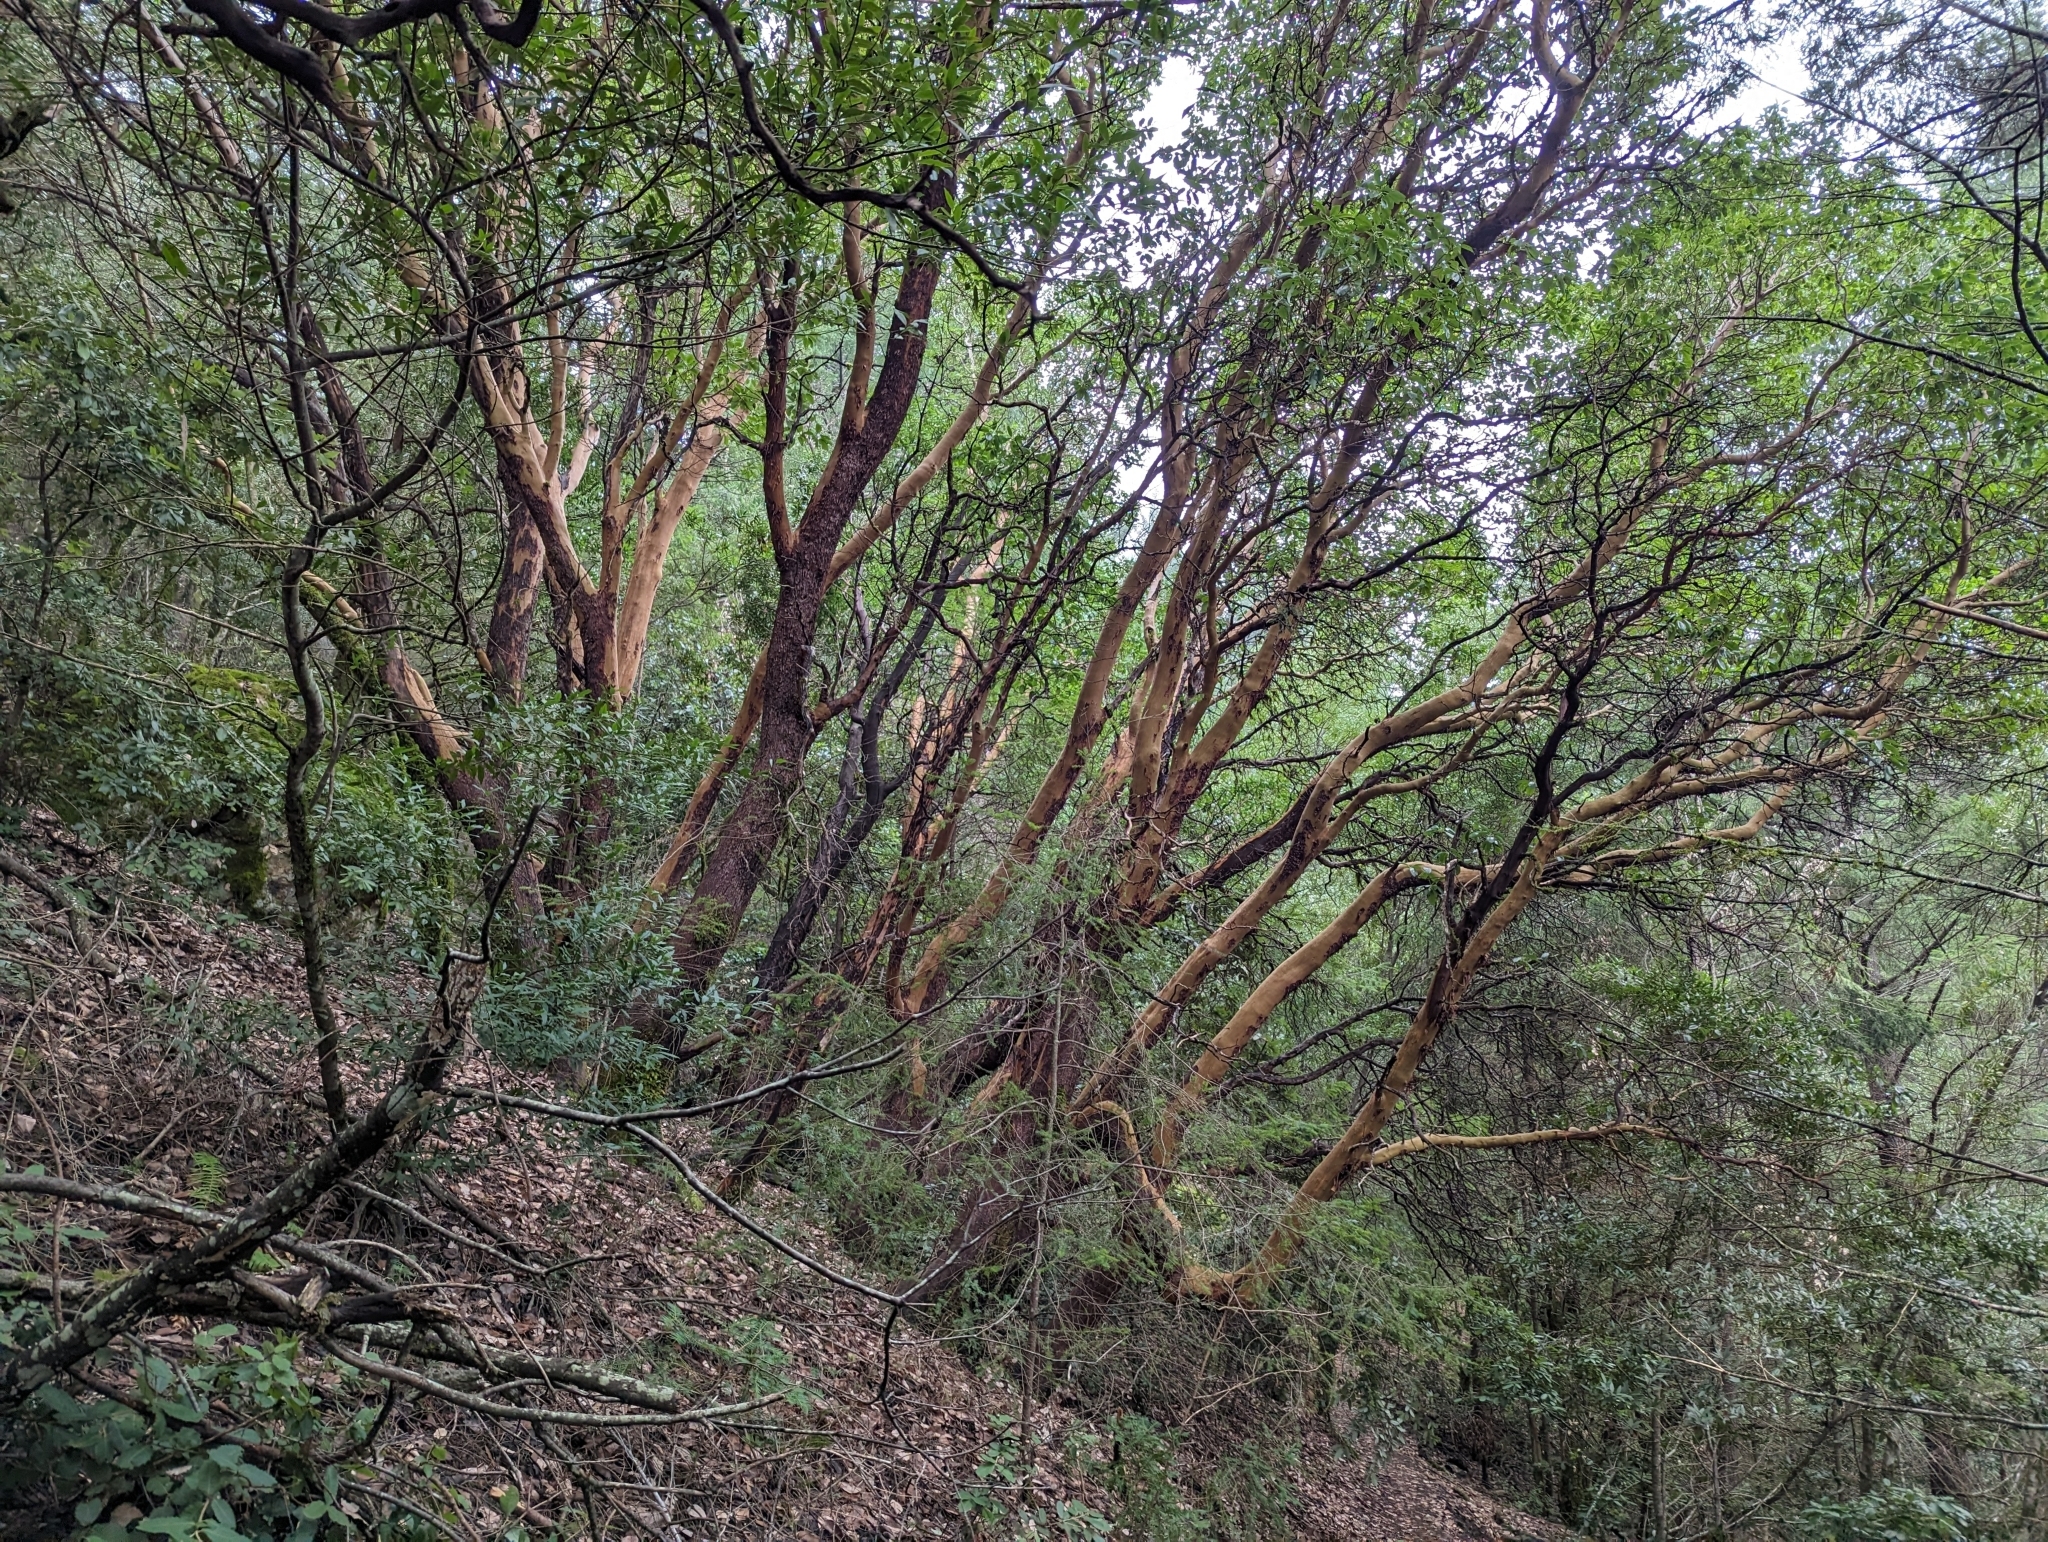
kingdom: Plantae
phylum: Tracheophyta
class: Magnoliopsida
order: Ericales
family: Ericaceae
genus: Arbutus
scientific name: Arbutus menziesii
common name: Pacific madrone
